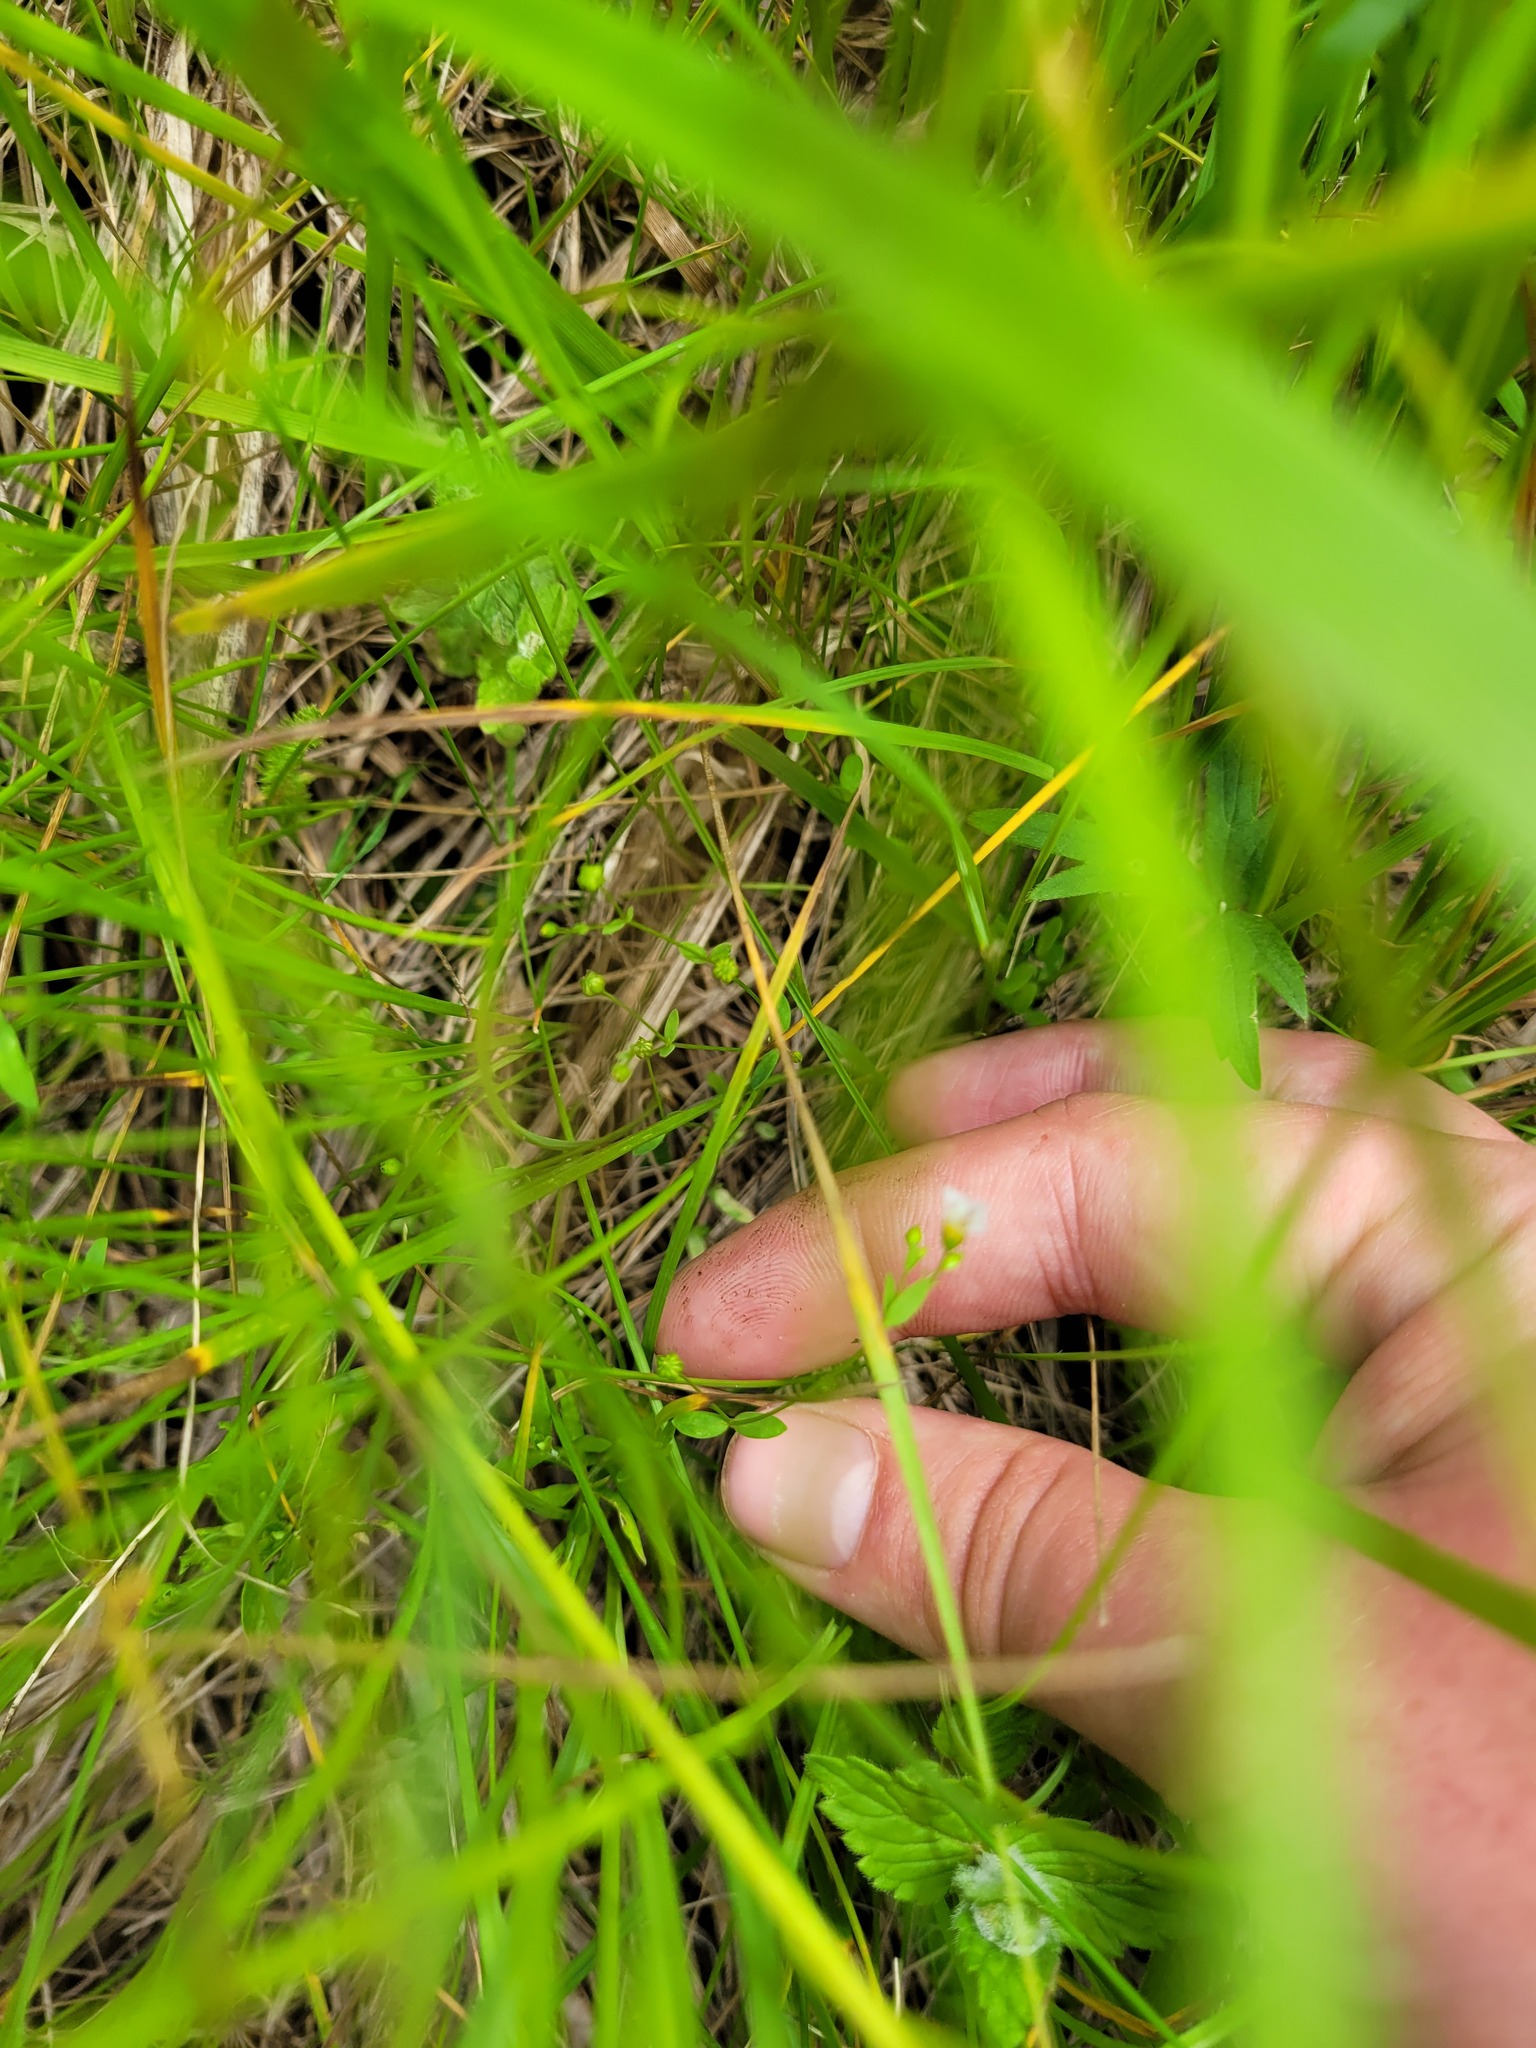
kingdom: Plantae
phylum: Tracheophyta
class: Magnoliopsida
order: Malpighiales
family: Linaceae
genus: Linum
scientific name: Linum catharticum
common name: Fairy flax
